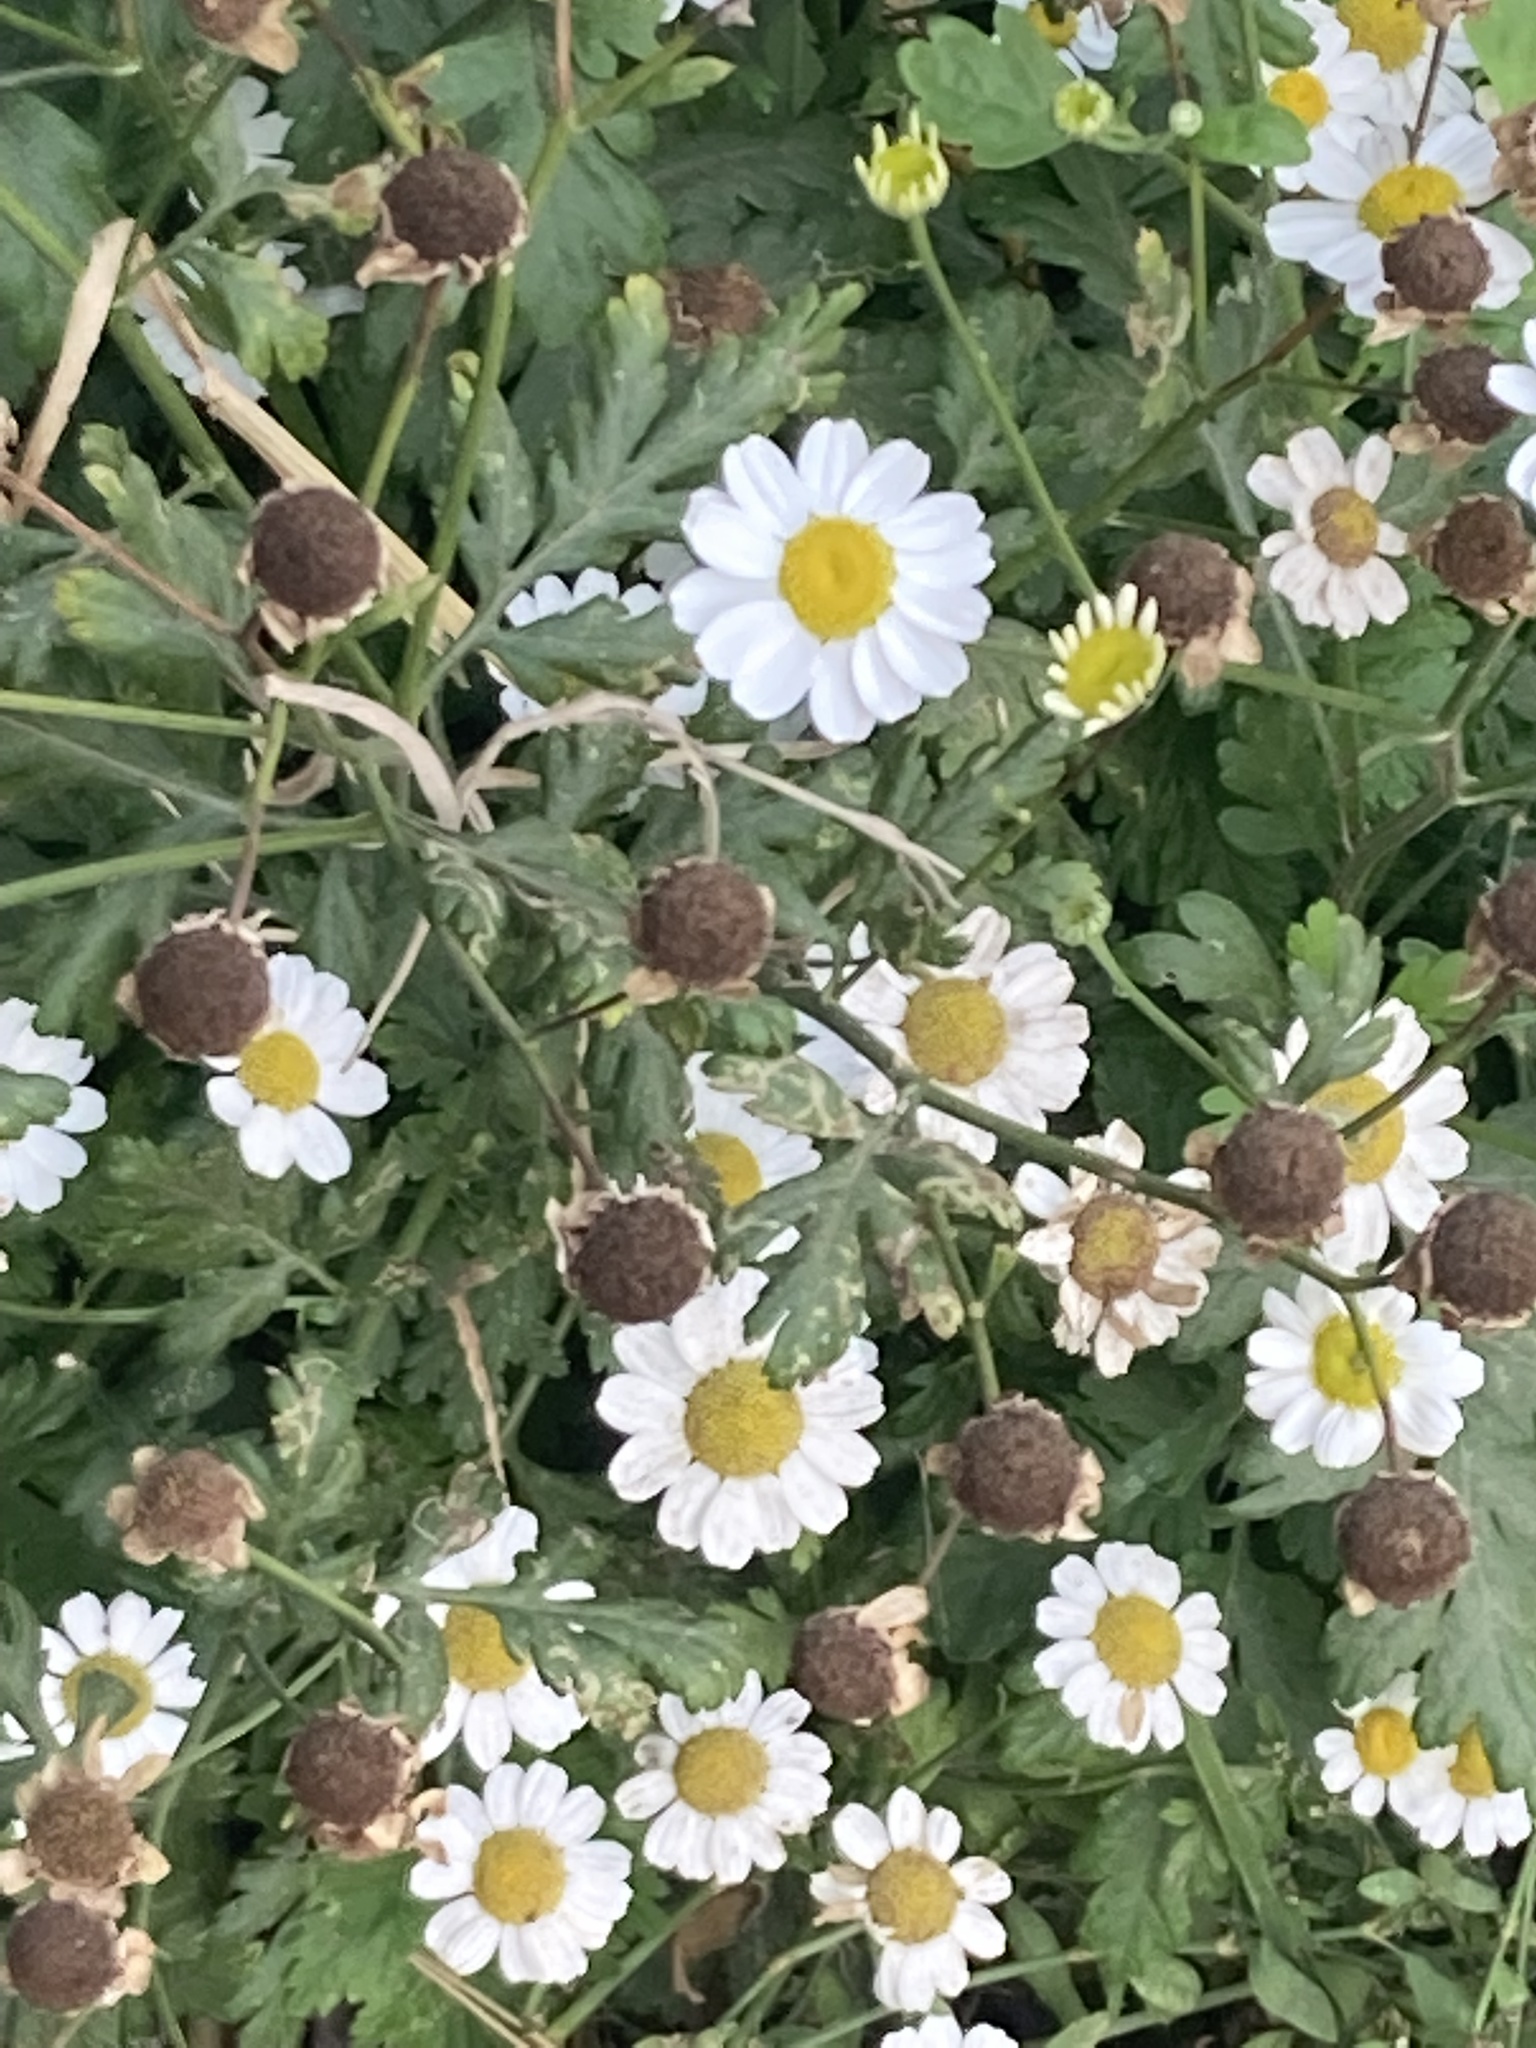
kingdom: Plantae
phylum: Tracheophyta
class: Magnoliopsida
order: Asterales
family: Asteraceae
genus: Tanacetum
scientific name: Tanacetum parthenium
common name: Feverfew
